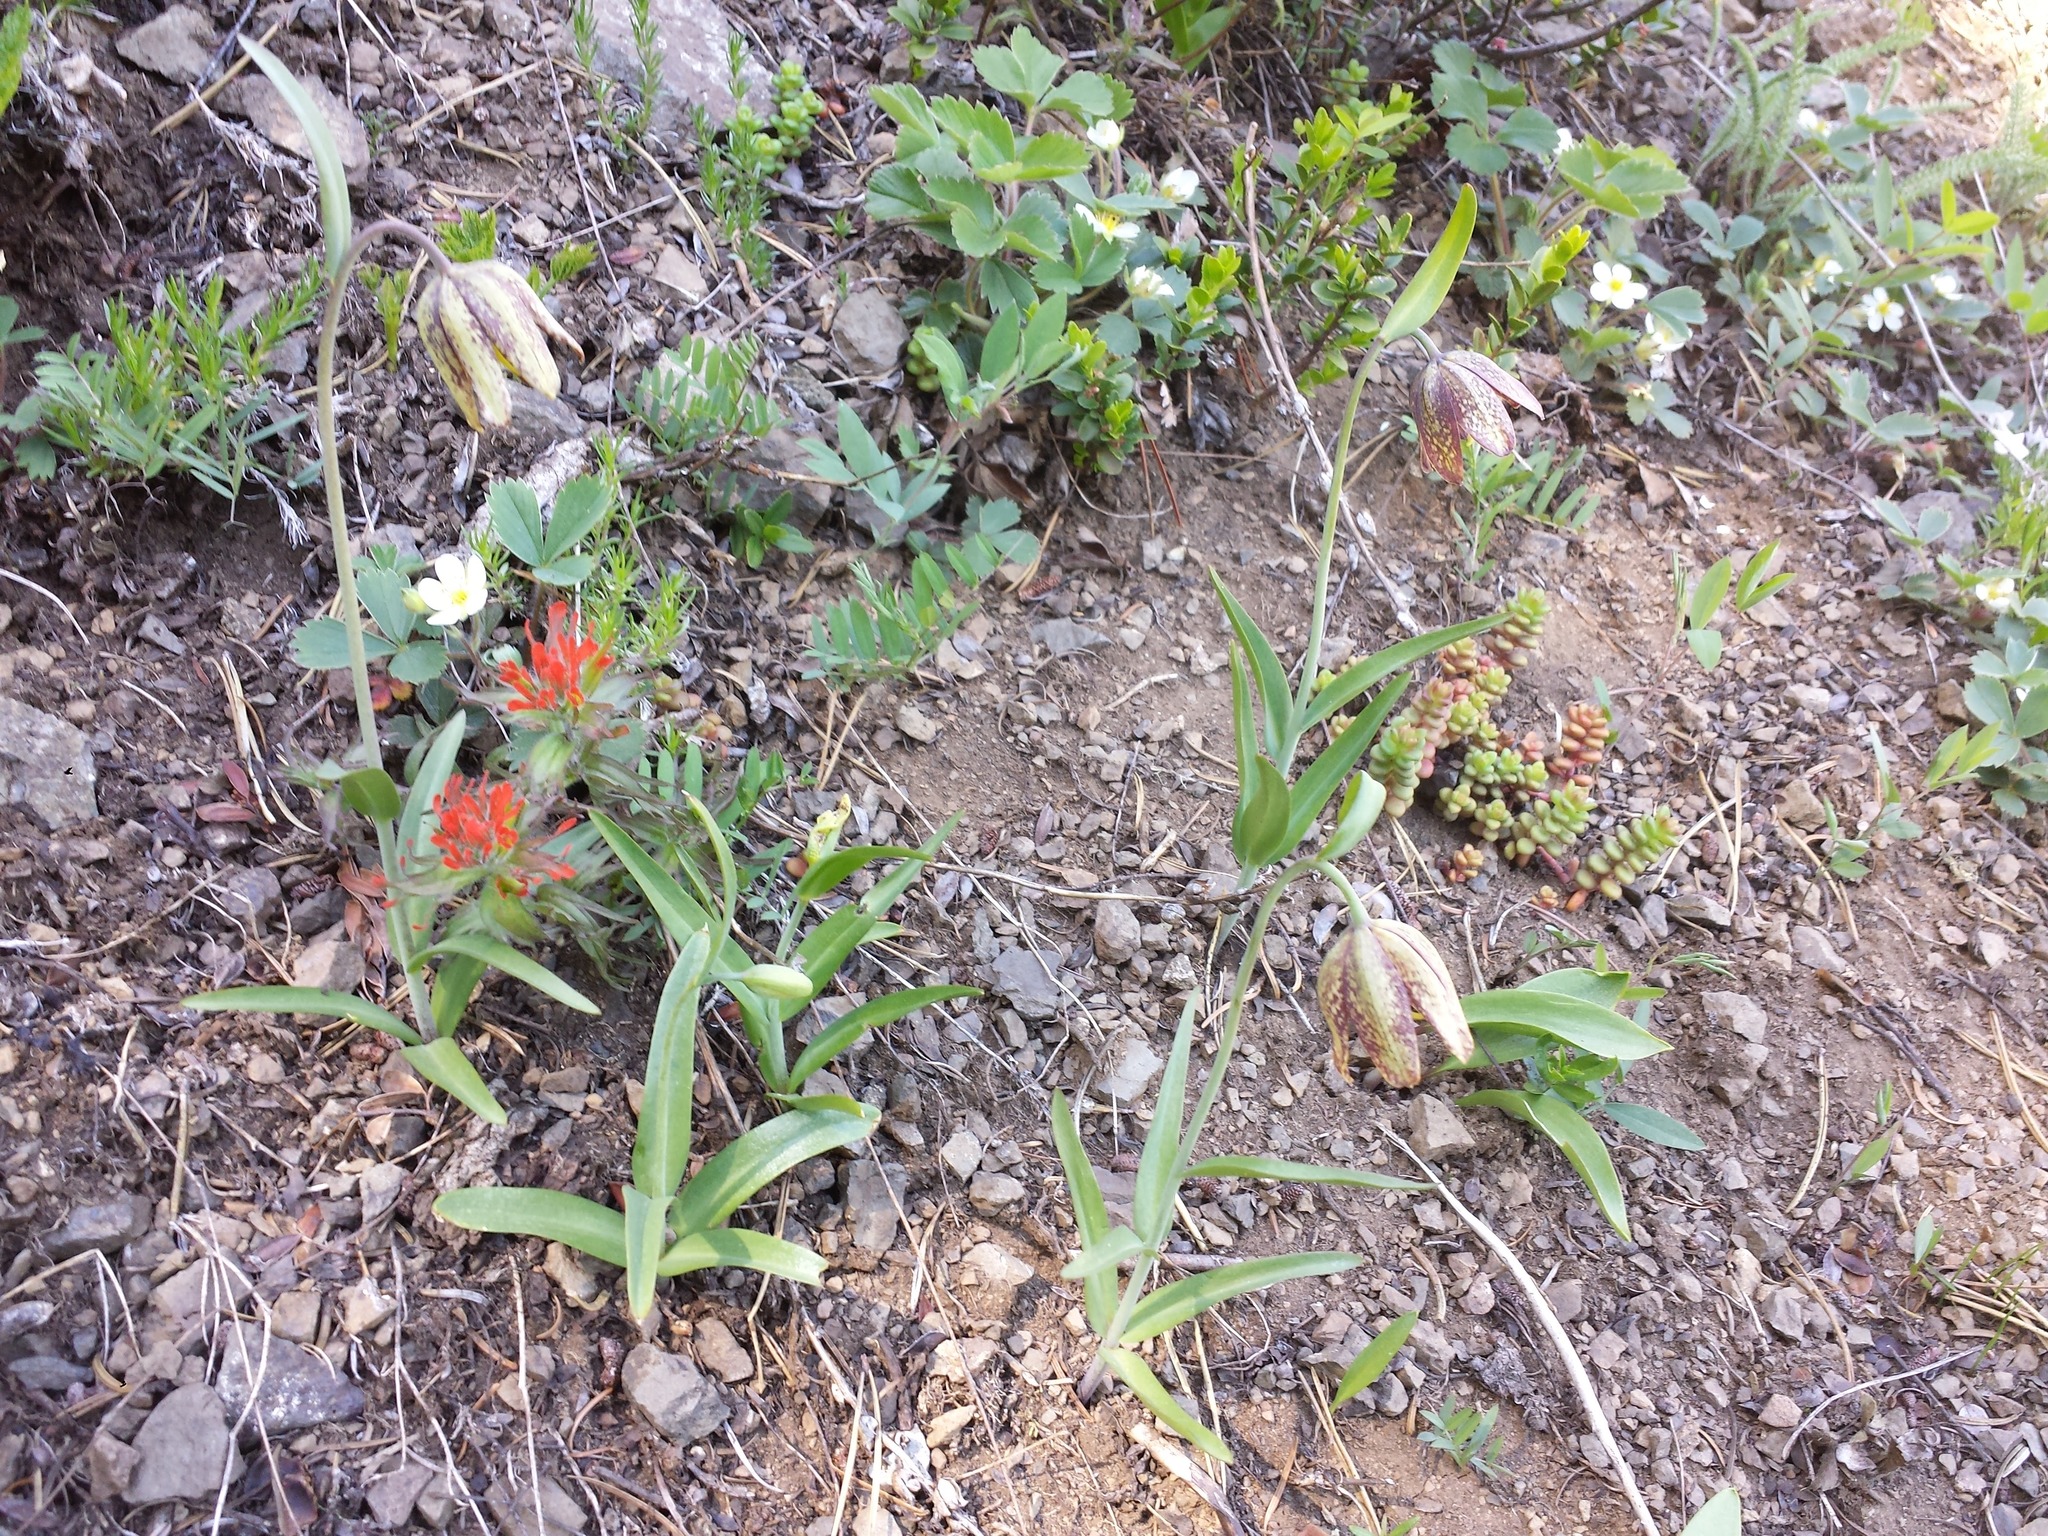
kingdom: Plantae
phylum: Tracheophyta
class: Liliopsida
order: Liliales
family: Liliaceae
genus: Fritillaria
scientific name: Fritillaria affinis
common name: Ojai fritillary
